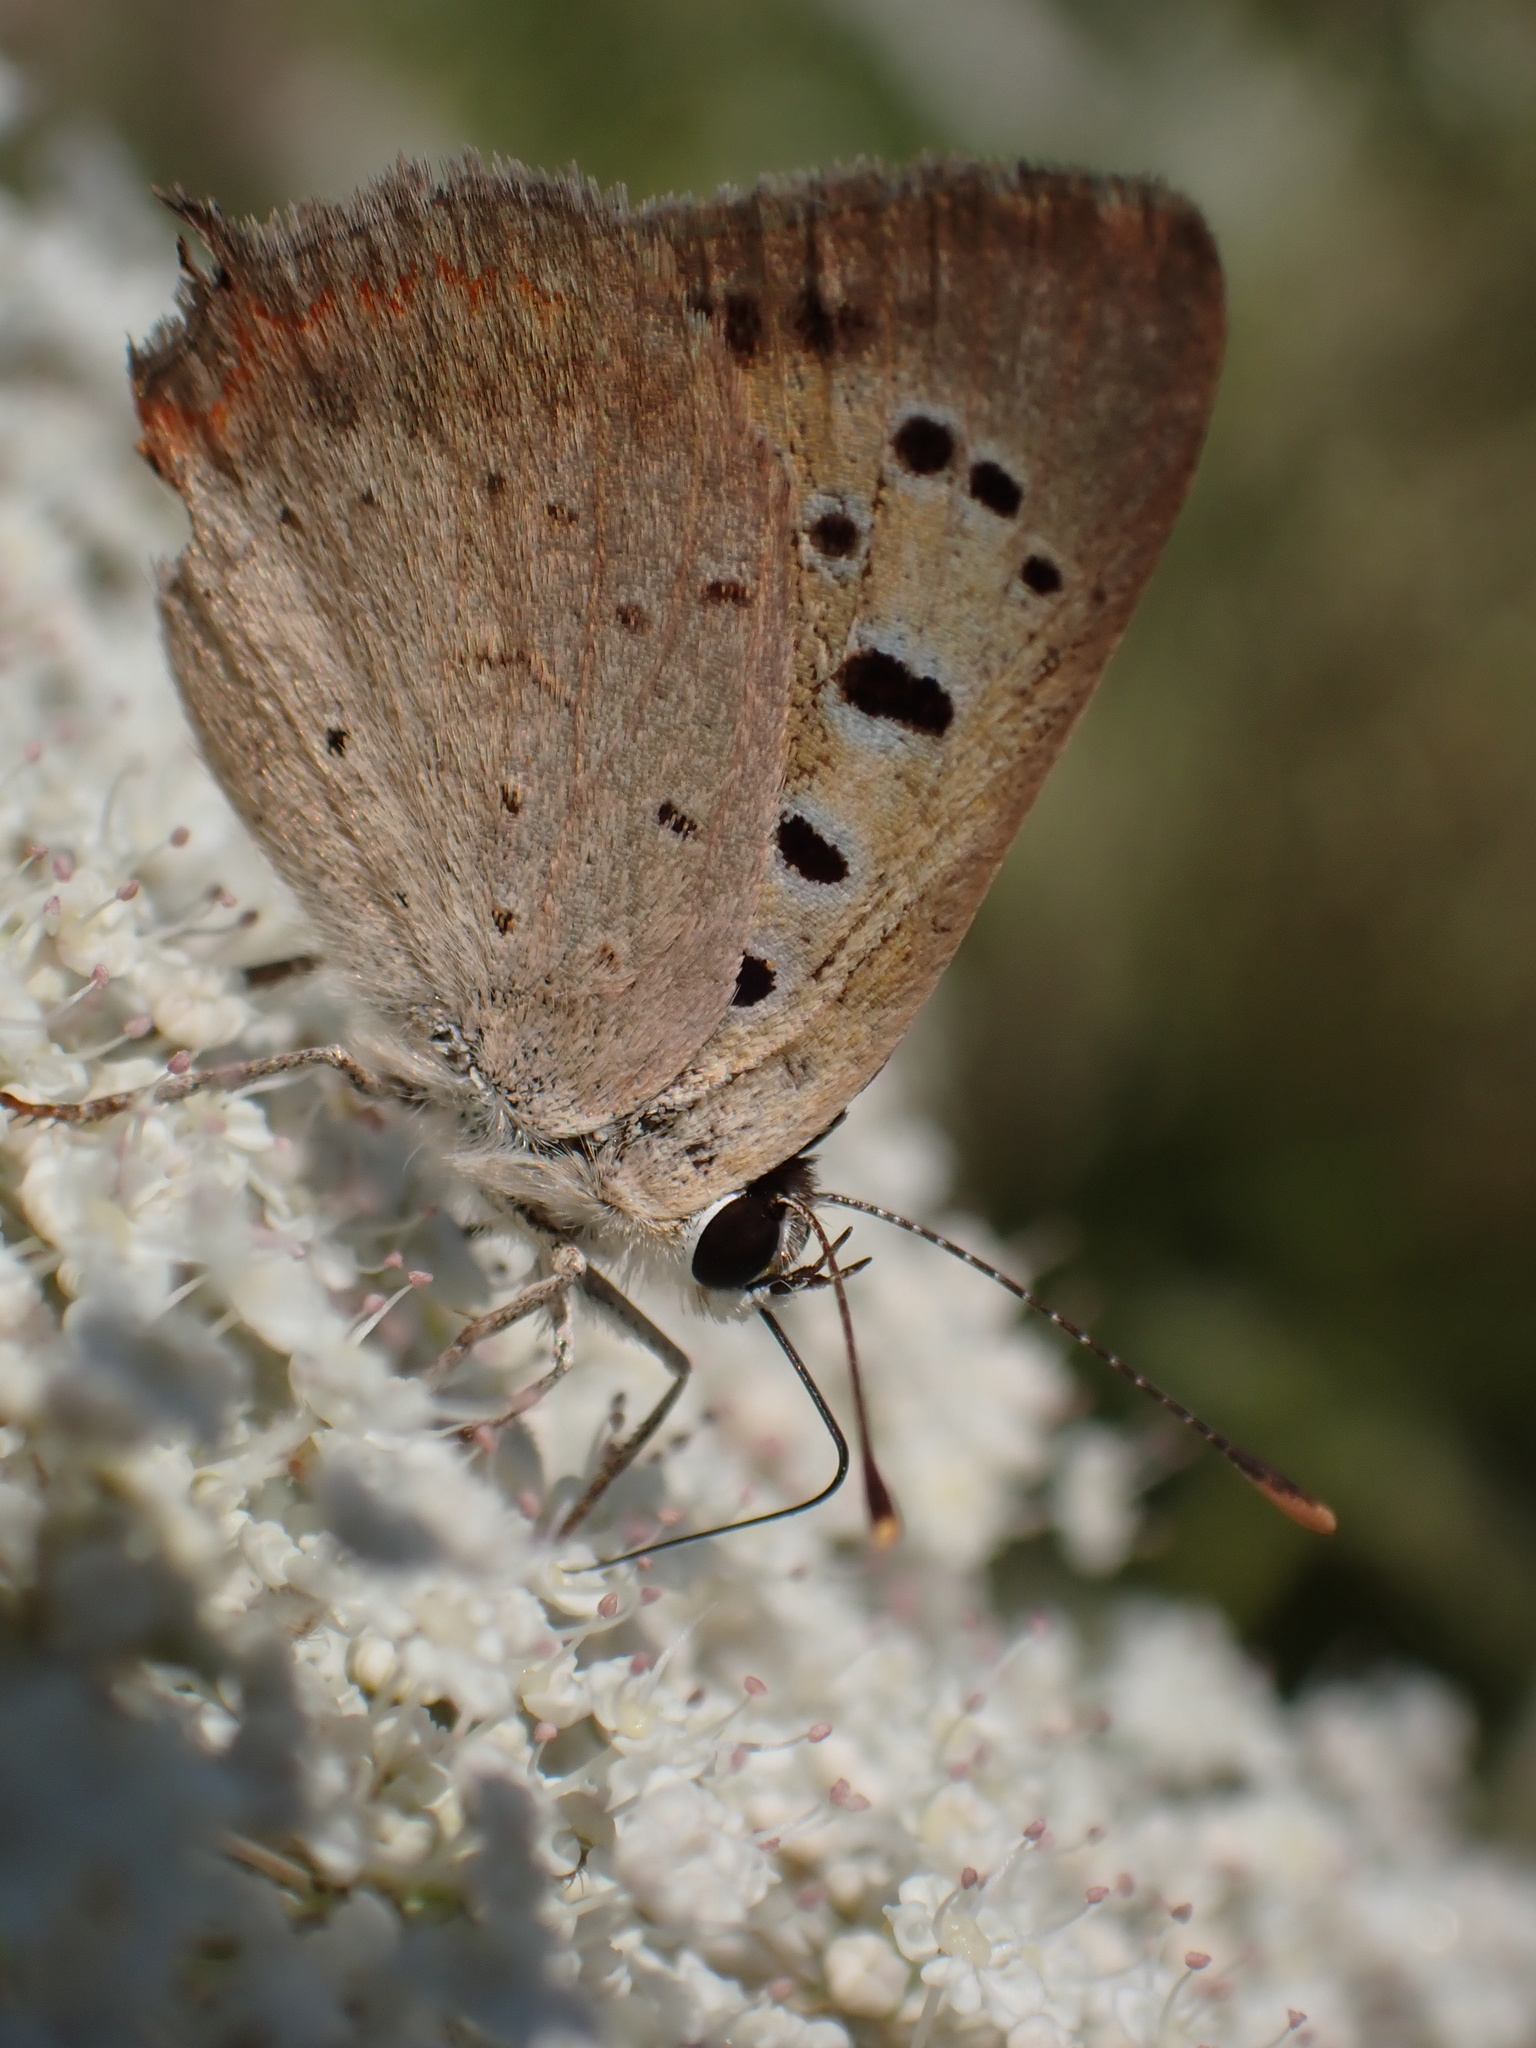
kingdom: Animalia
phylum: Arthropoda
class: Insecta
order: Lepidoptera
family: Lycaenidae
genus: Lycaena
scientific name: Lycaena phlaeas
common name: Small copper
